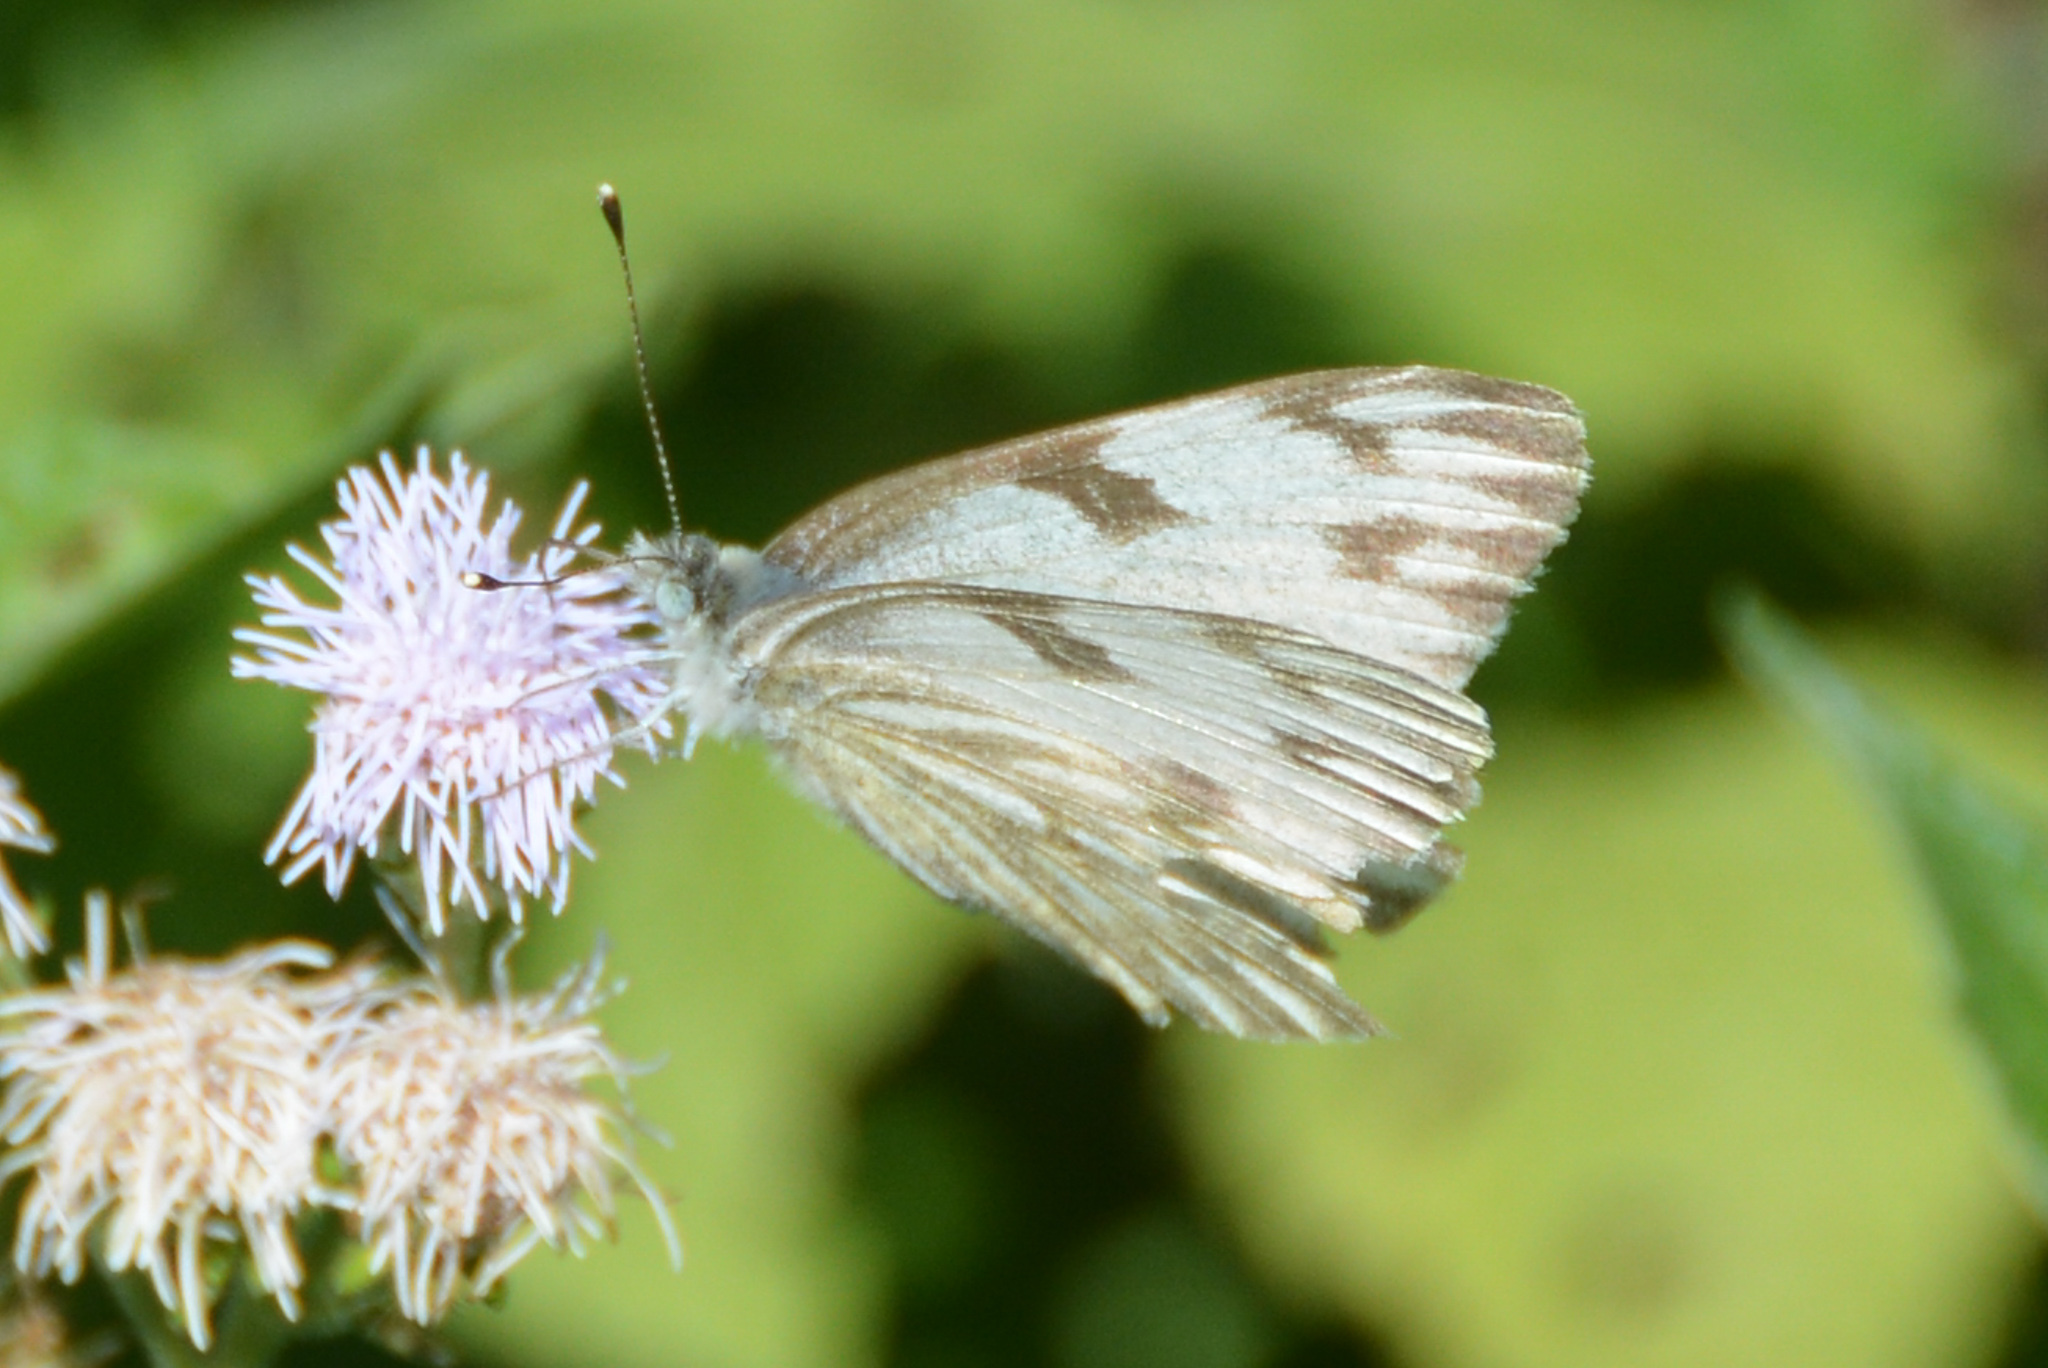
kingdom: Animalia
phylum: Arthropoda
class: Insecta
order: Lepidoptera
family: Pieridae
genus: Pontia
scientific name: Pontia protodice
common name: Checkered white
